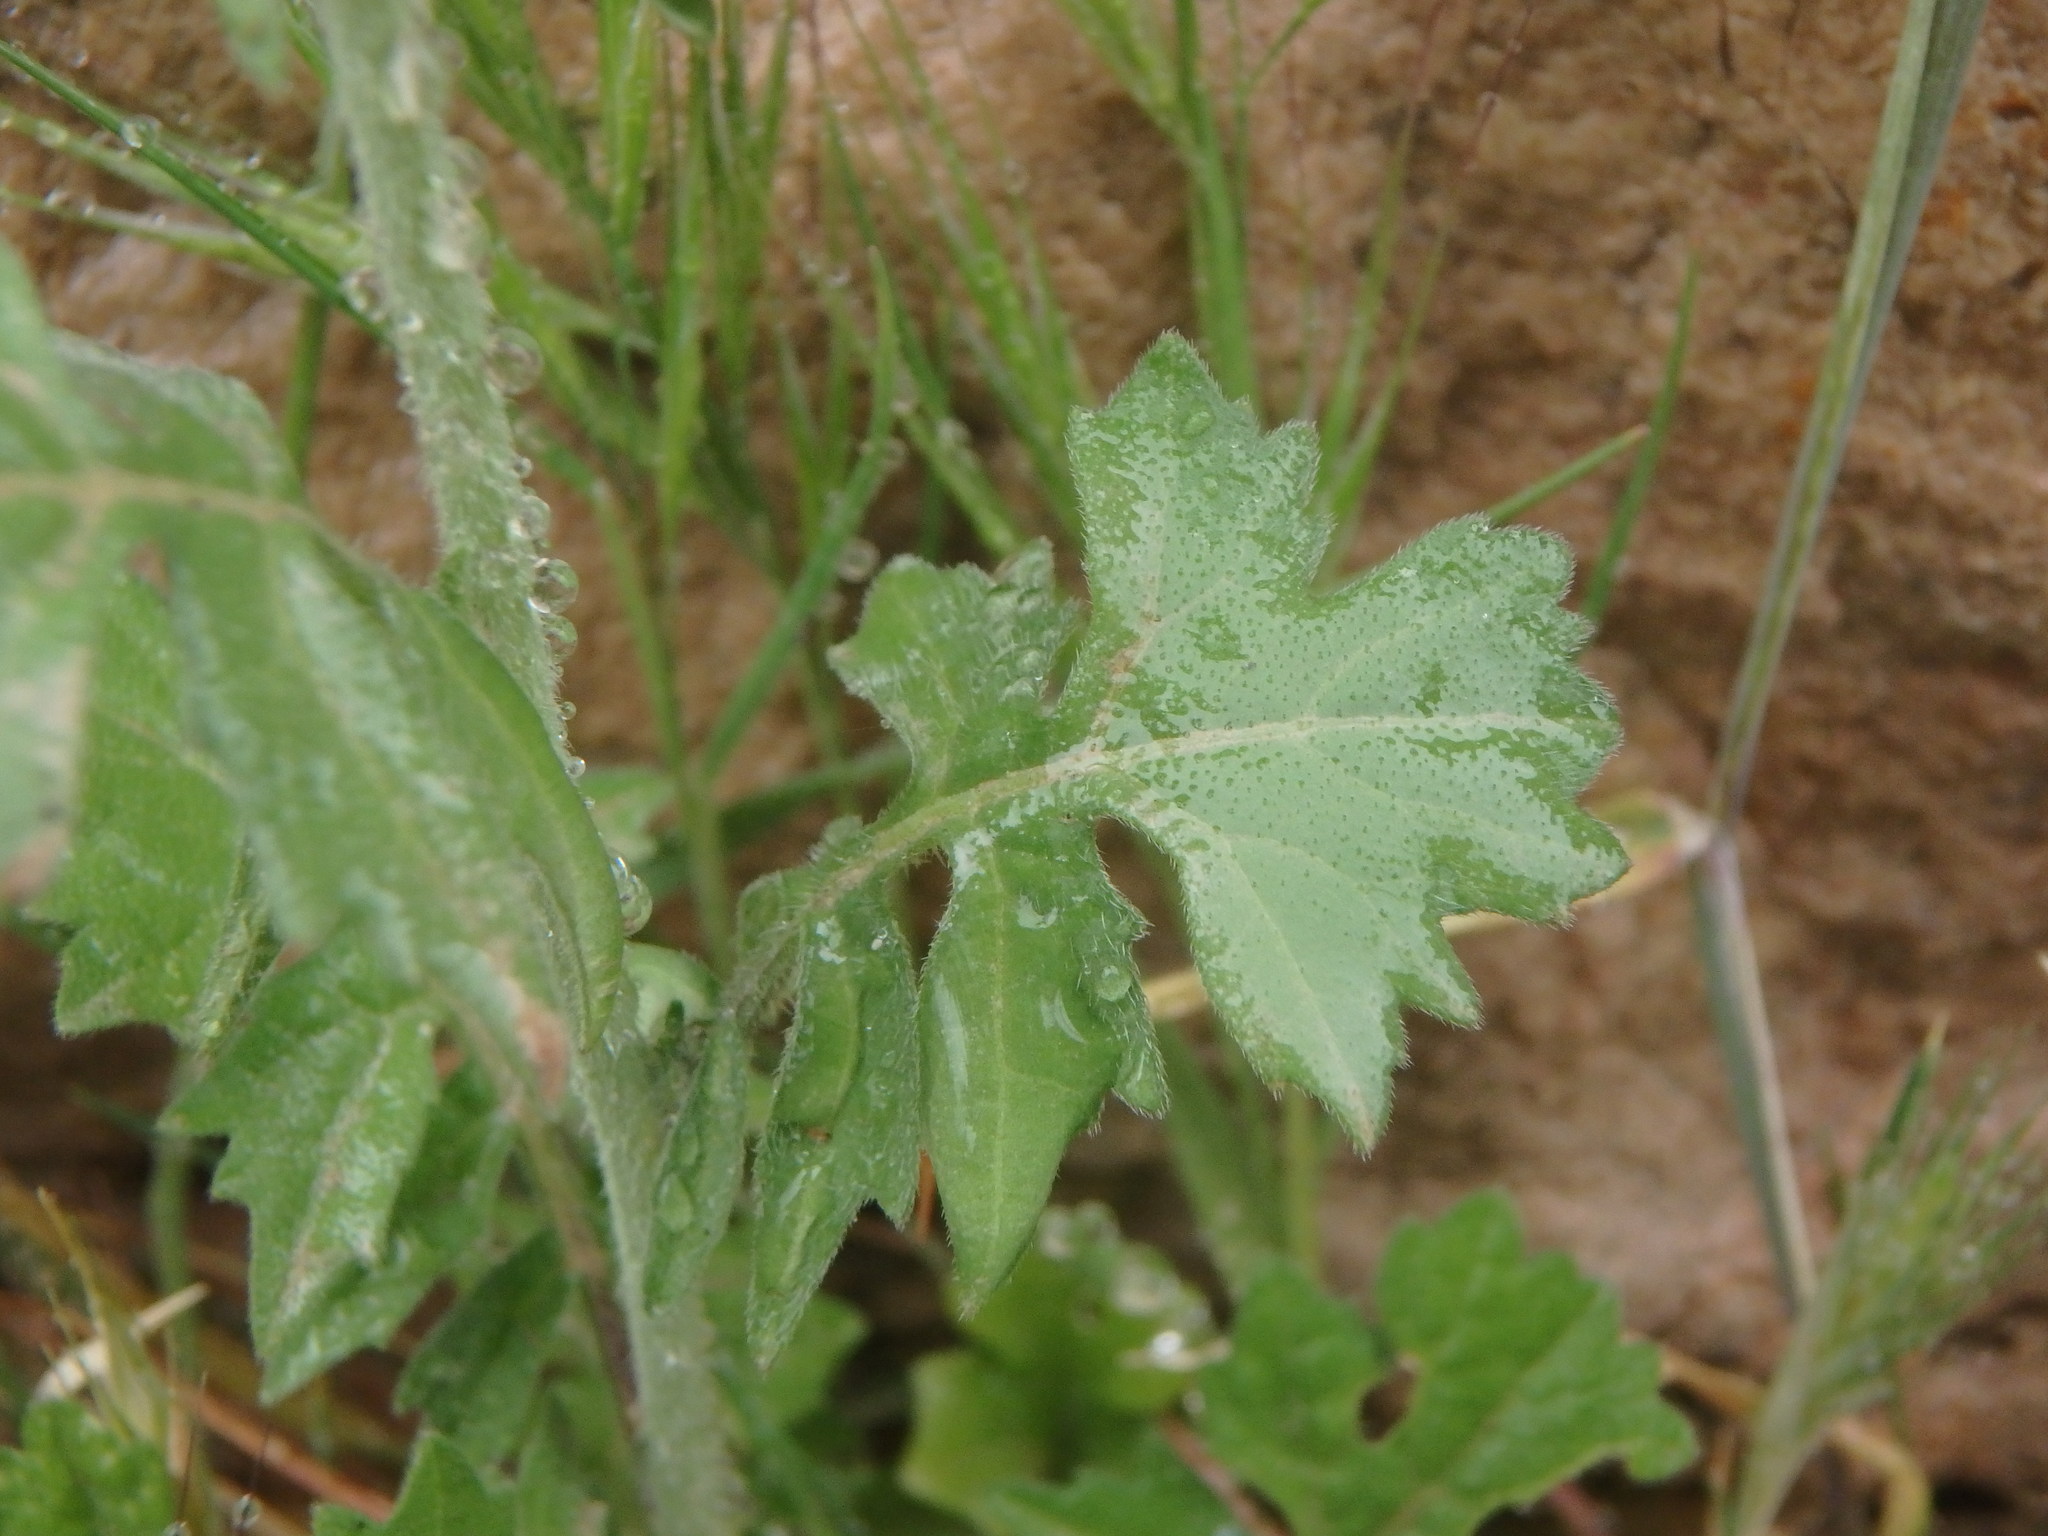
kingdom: Plantae
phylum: Tracheophyta
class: Magnoliopsida
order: Brassicales
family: Brassicaceae
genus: Sisymbrium
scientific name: Sisymbrium officinale
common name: Hedge mustard
